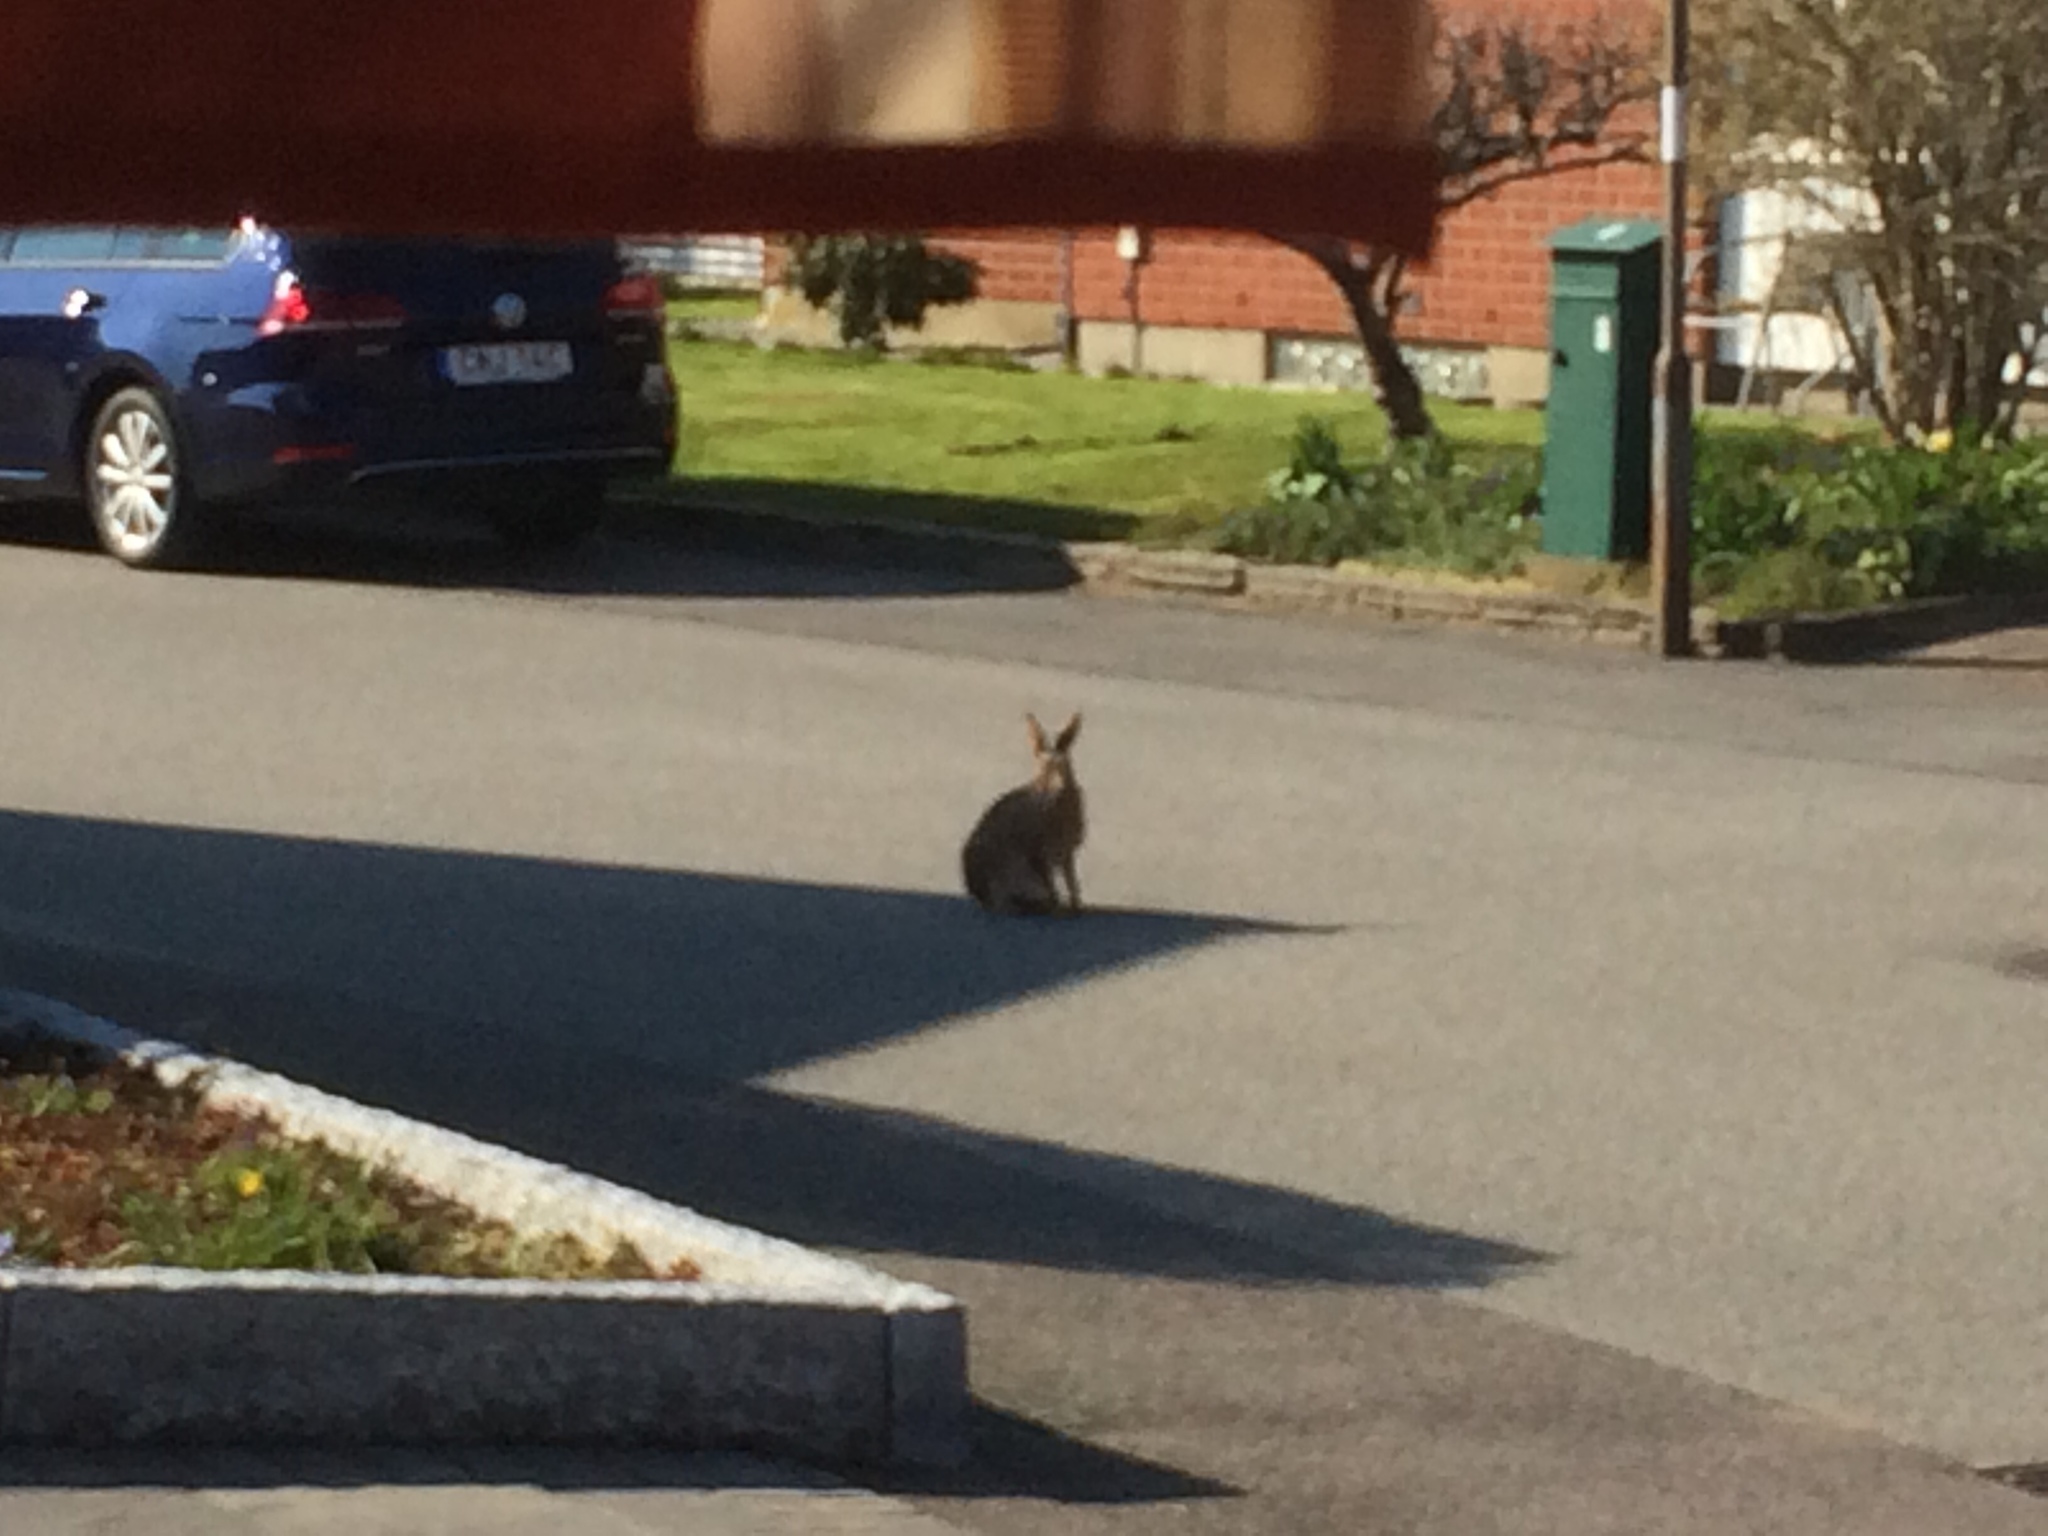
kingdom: Animalia
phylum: Chordata
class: Mammalia
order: Lagomorpha
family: Leporidae
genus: Lepus
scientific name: Lepus europaeus
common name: European hare
